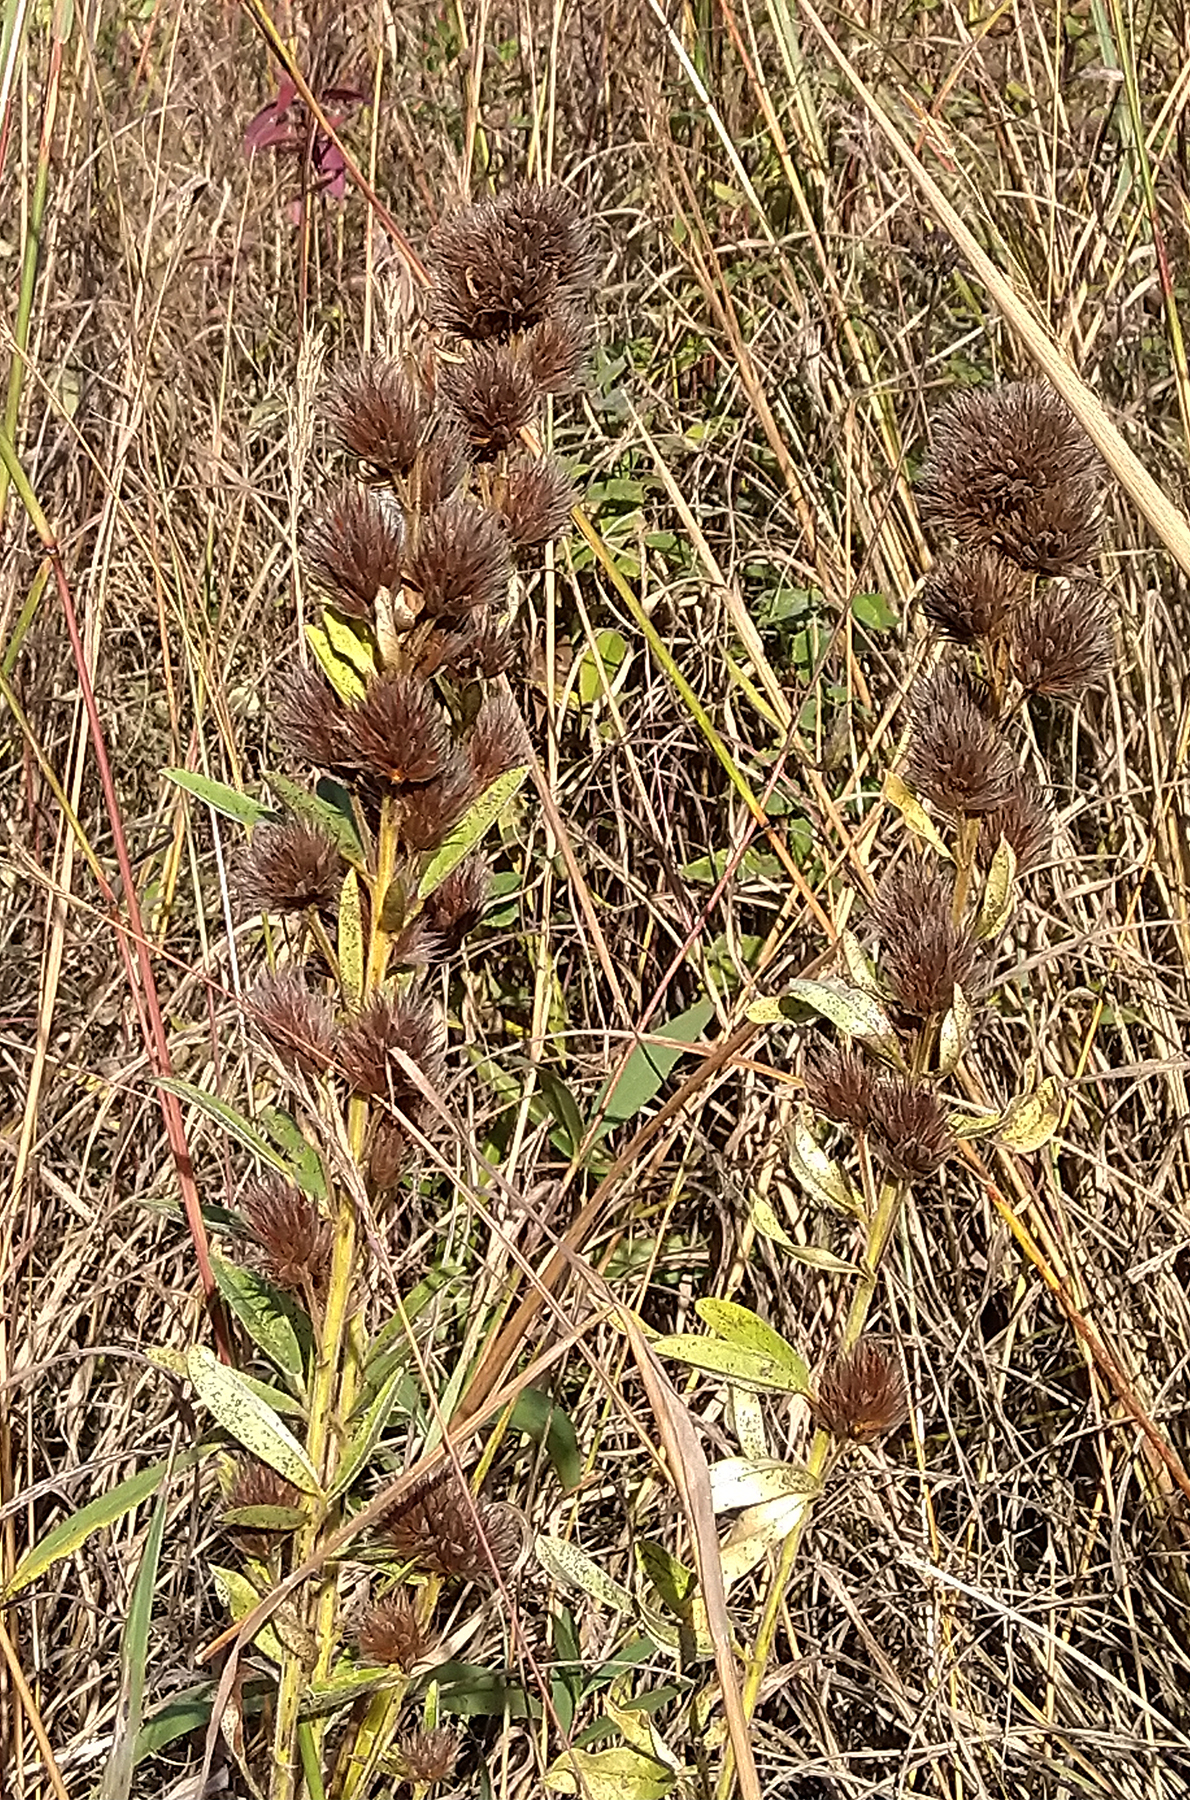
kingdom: Plantae
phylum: Tracheophyta
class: Magnoliopsida
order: Fabales
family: Fabaceae
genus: Lespedeza
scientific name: Lespedeza capitata
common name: Dusty clover
